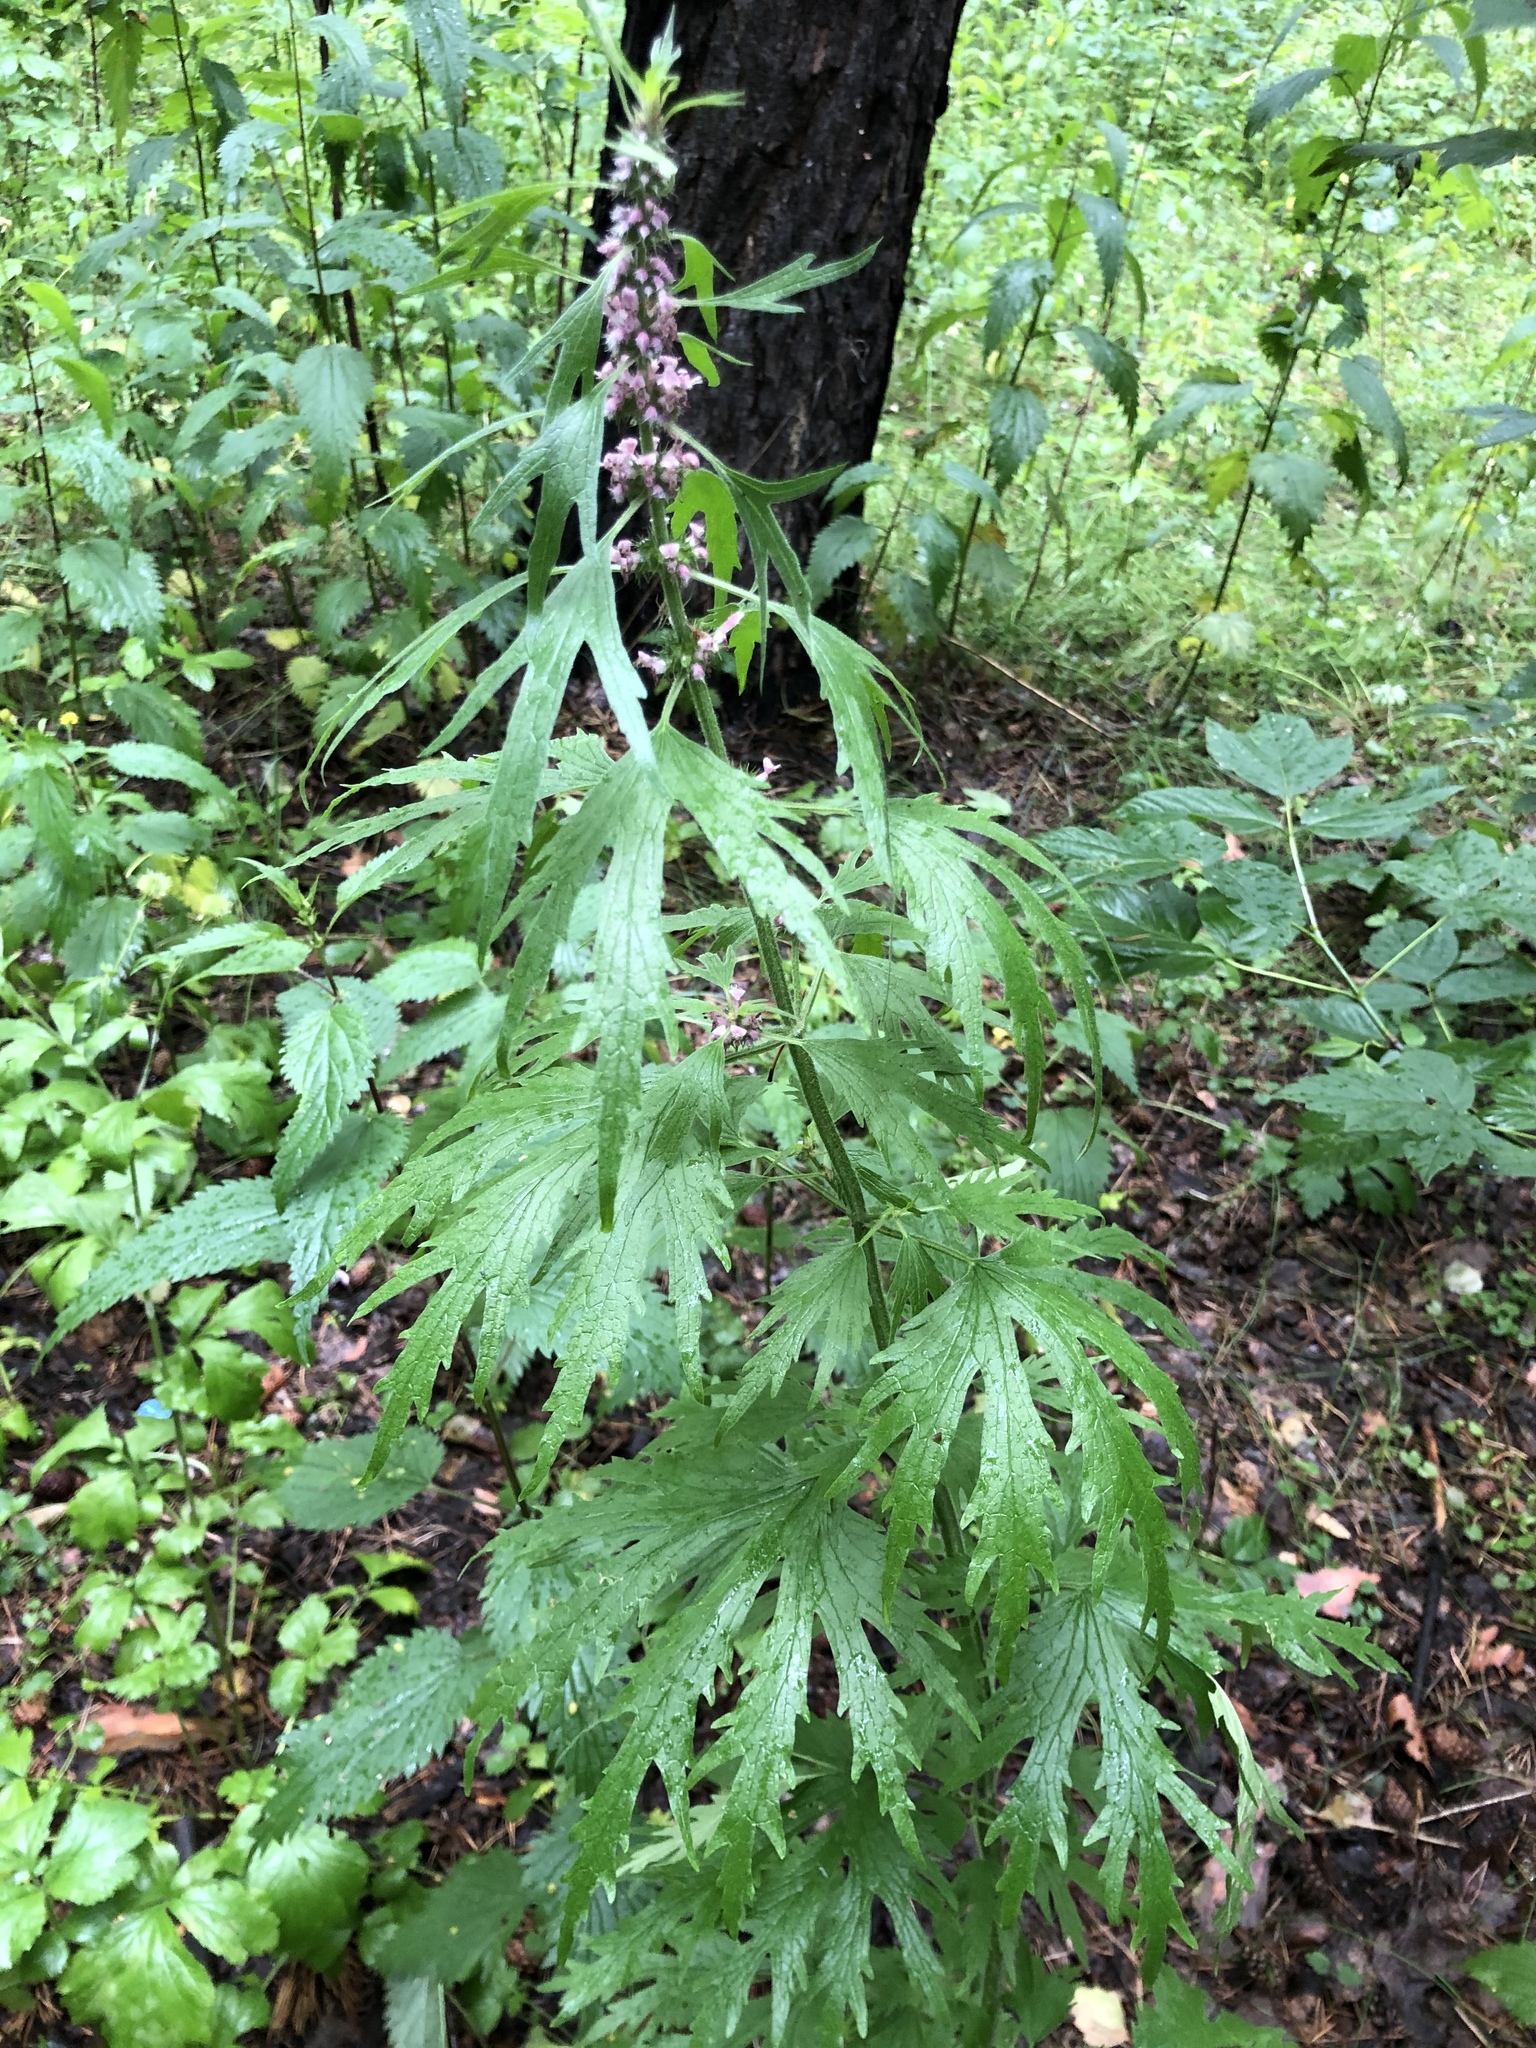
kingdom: Plantae
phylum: Tracheophyta
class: Magnoliopsida
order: Lamiales
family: Lamiaceae
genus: Leonurus
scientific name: Leonurus quinquelobatus
